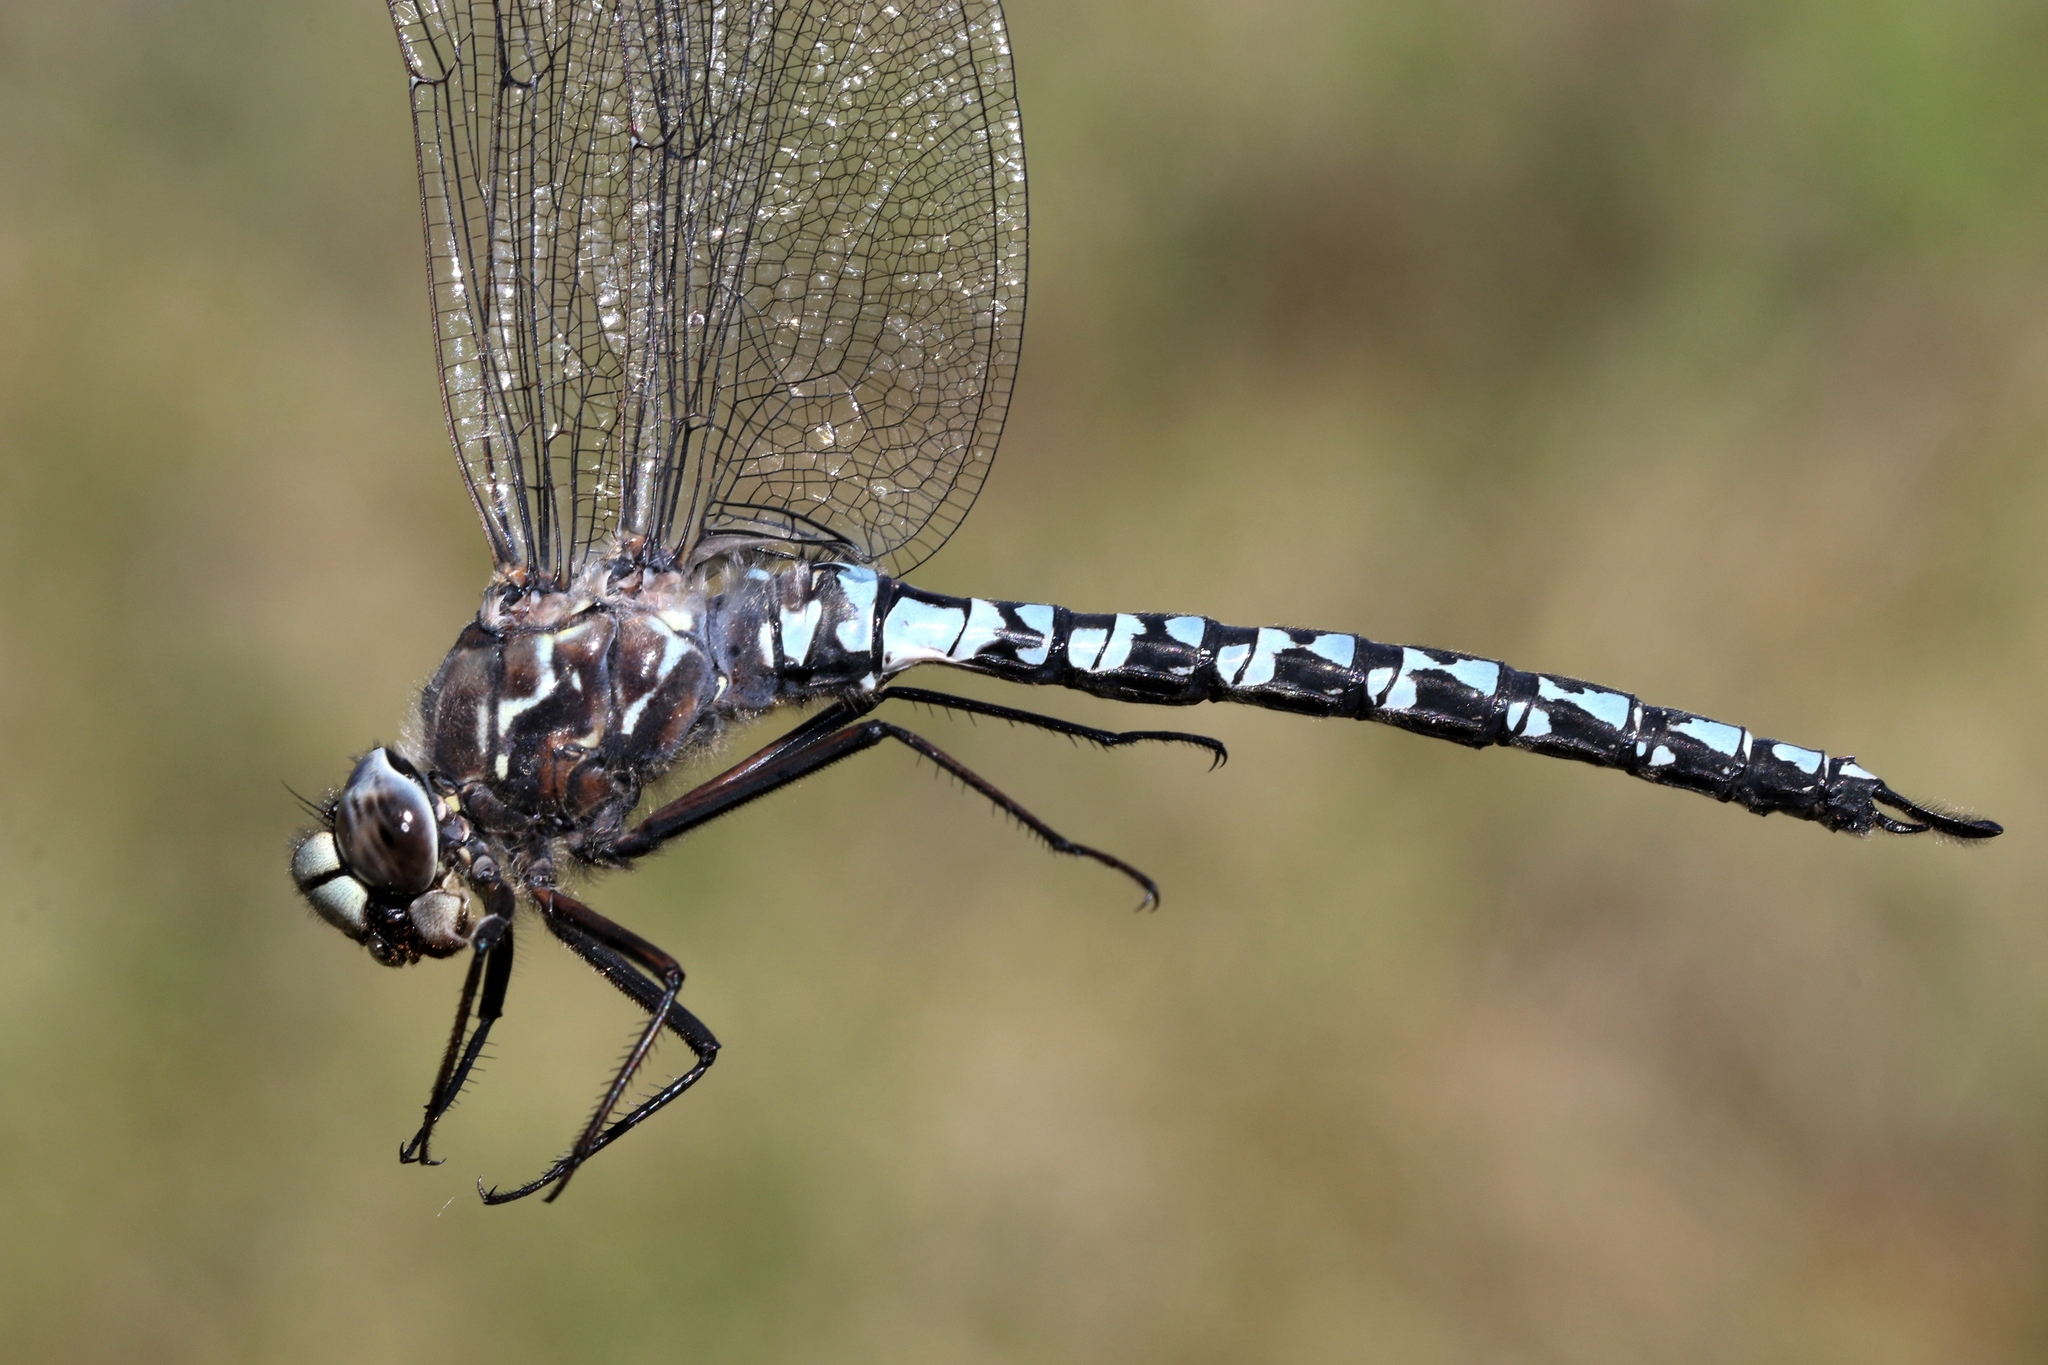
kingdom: Animalia
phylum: Arthropoda
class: Insecta
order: Odonata
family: Aeshnidae
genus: Aeshna
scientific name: Aeshna septentrionalis
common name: Azure darner
